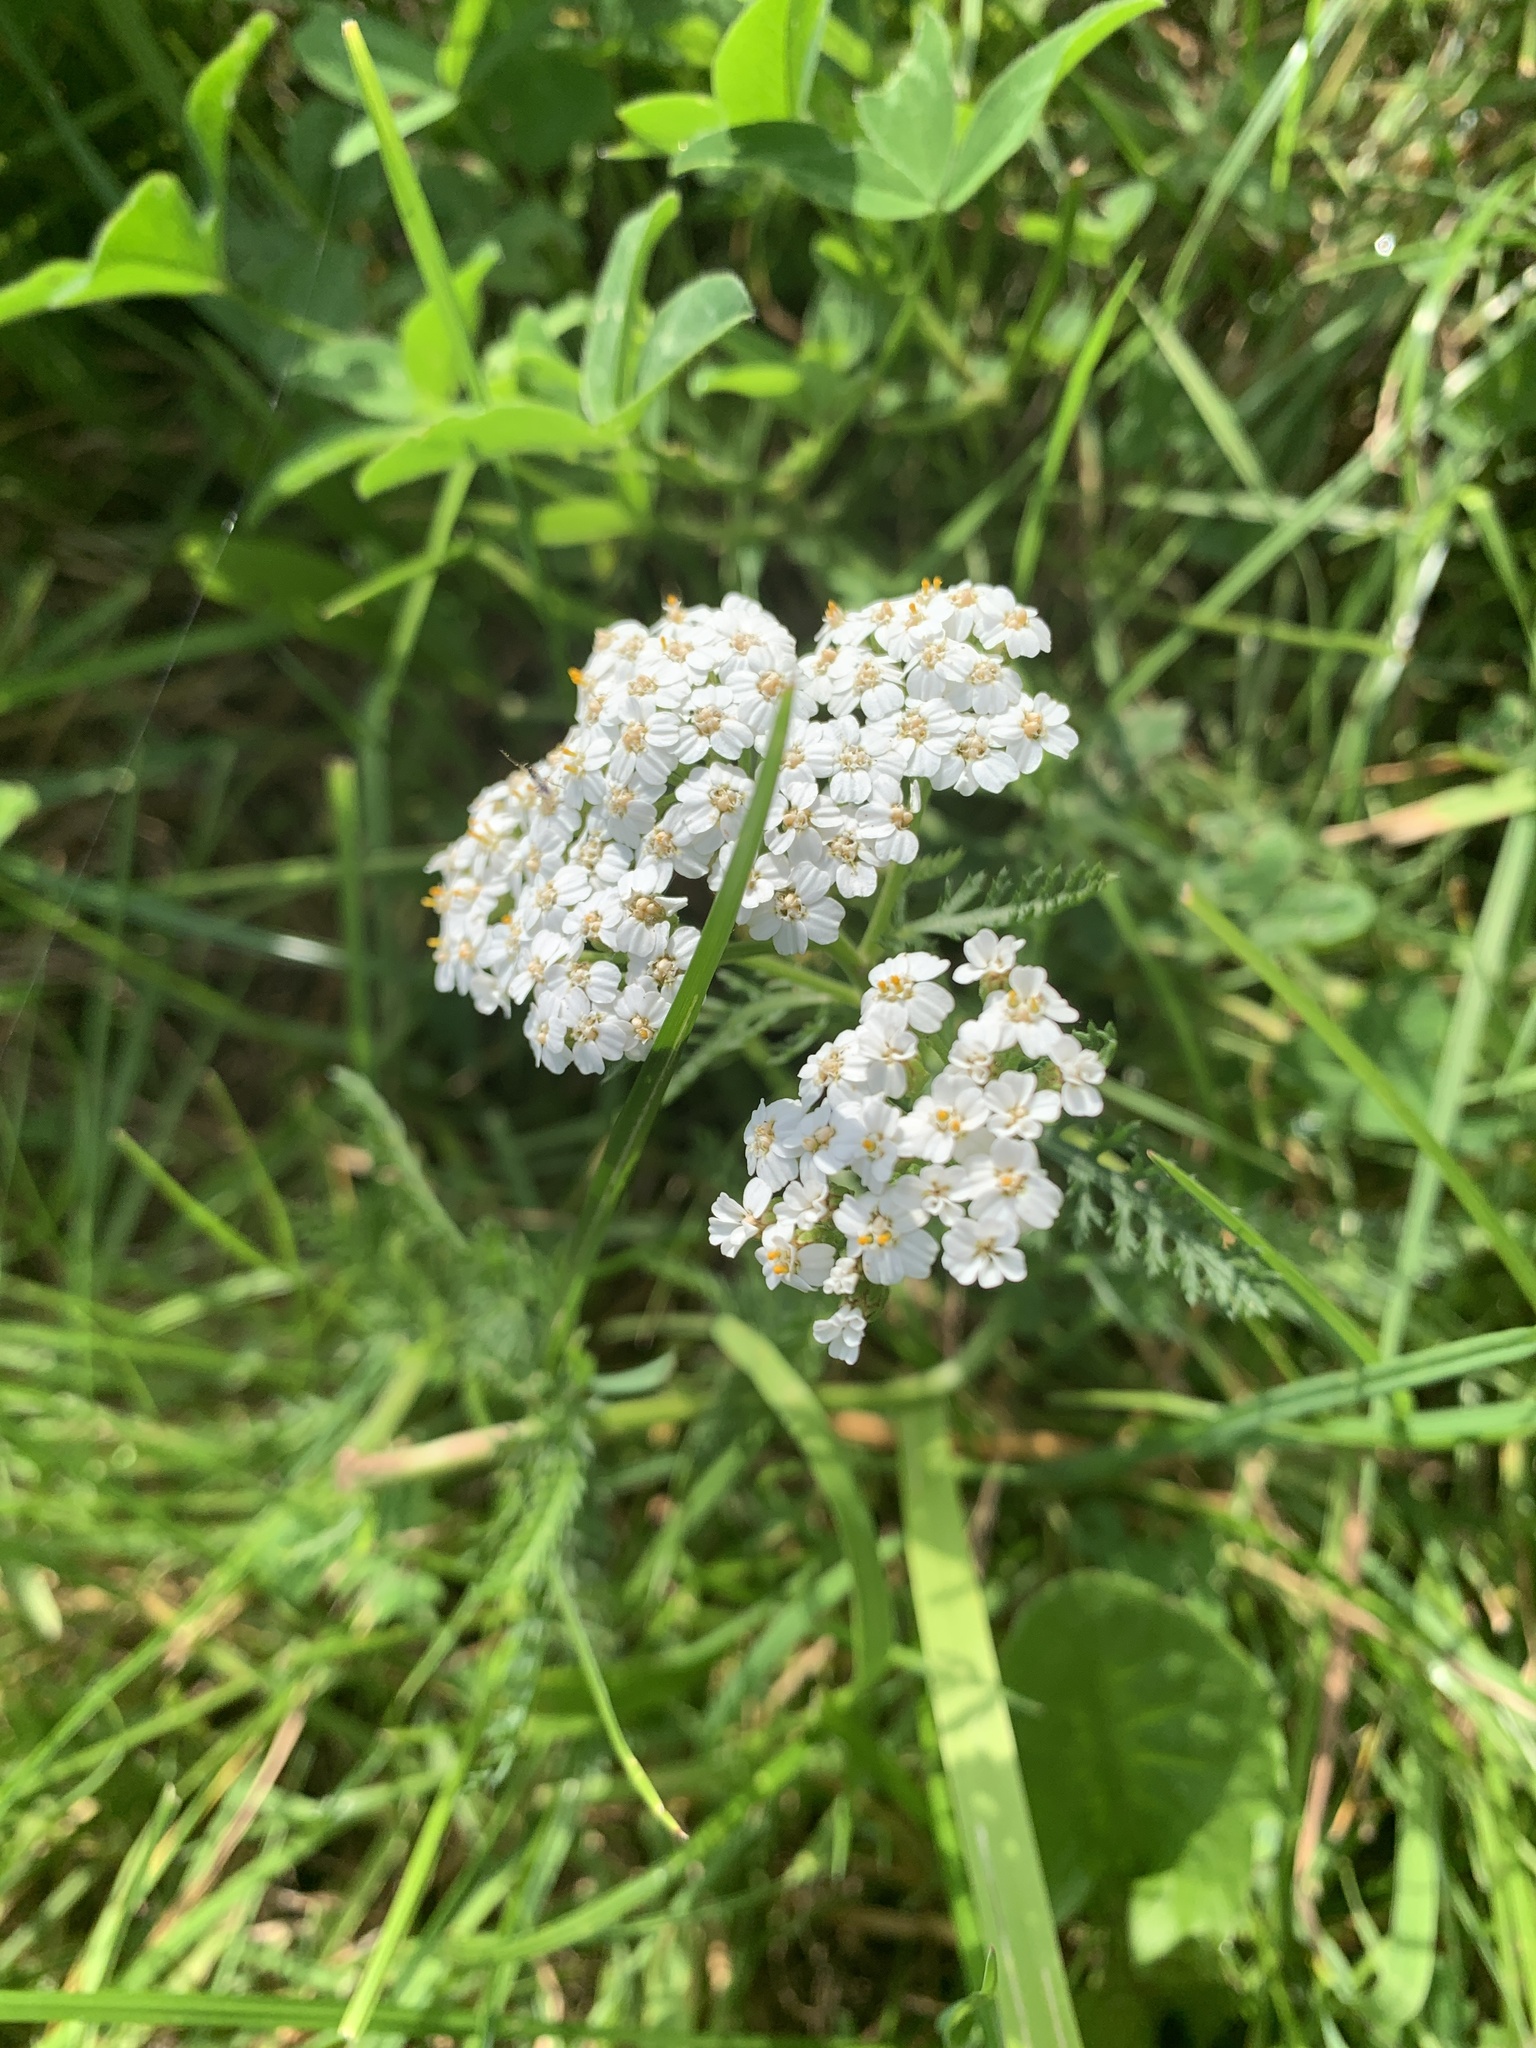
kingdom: Plantae
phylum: Tracheophyta
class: Magnoliopsida
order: Asterales
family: Asteraceae
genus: Achillea
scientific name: Achillea millefolium
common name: Yarrow
